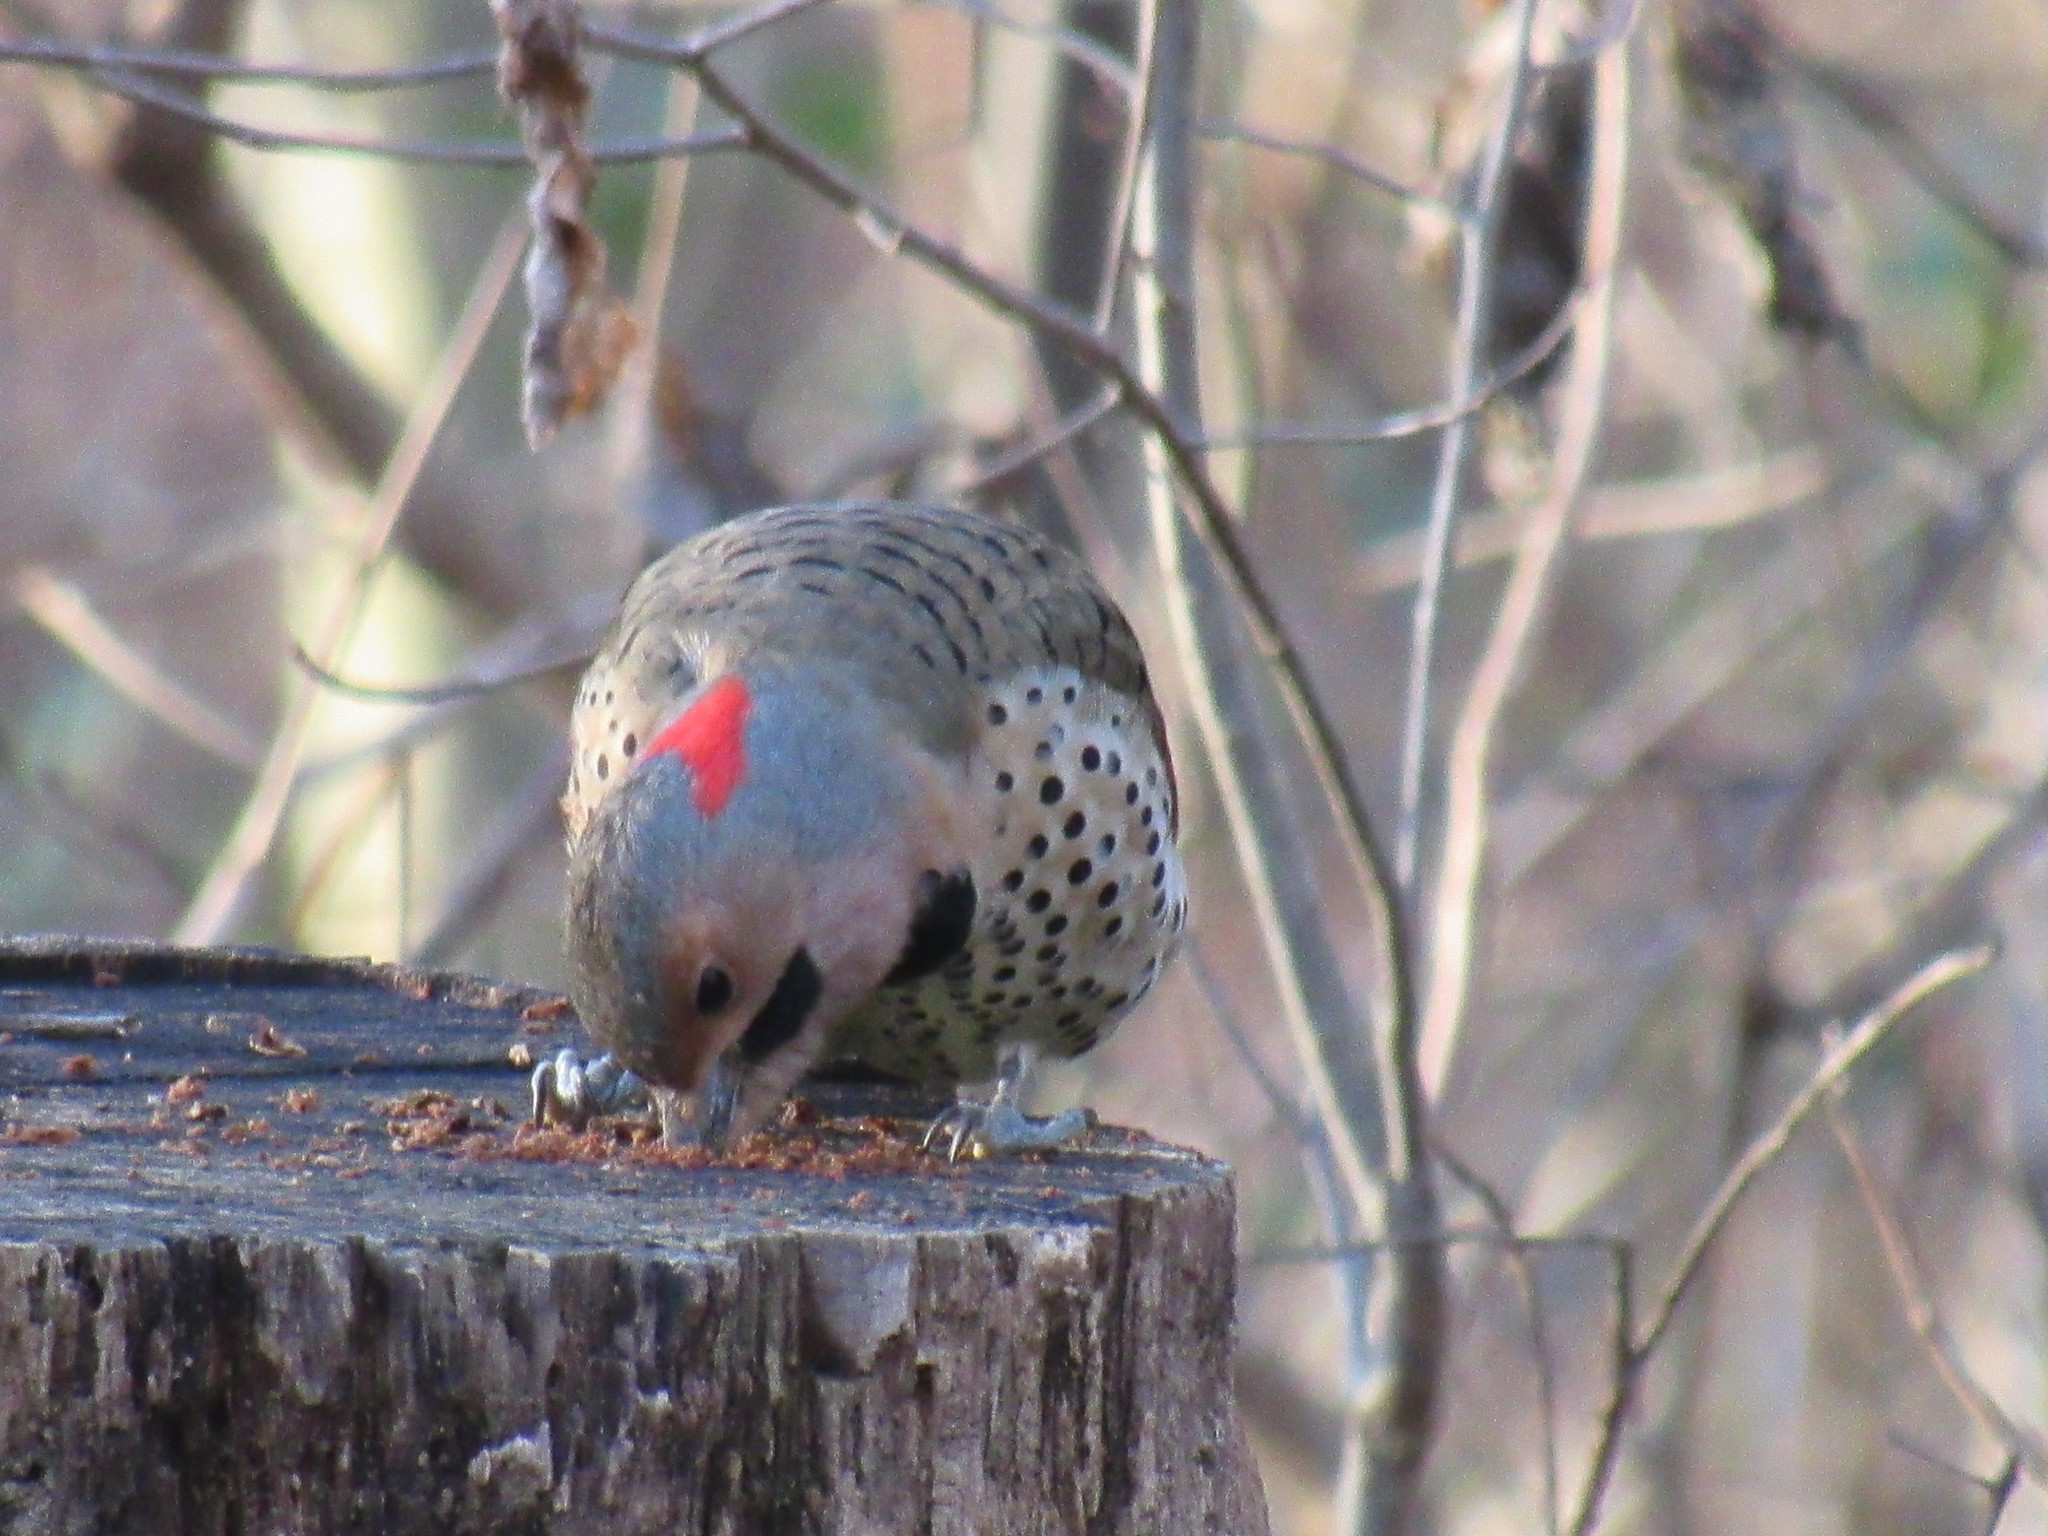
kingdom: Animalia
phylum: Chordata
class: Aves
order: Piciformes
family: Picidae
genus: Colaptes
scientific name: Colaptes auratus
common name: Northern flicker
